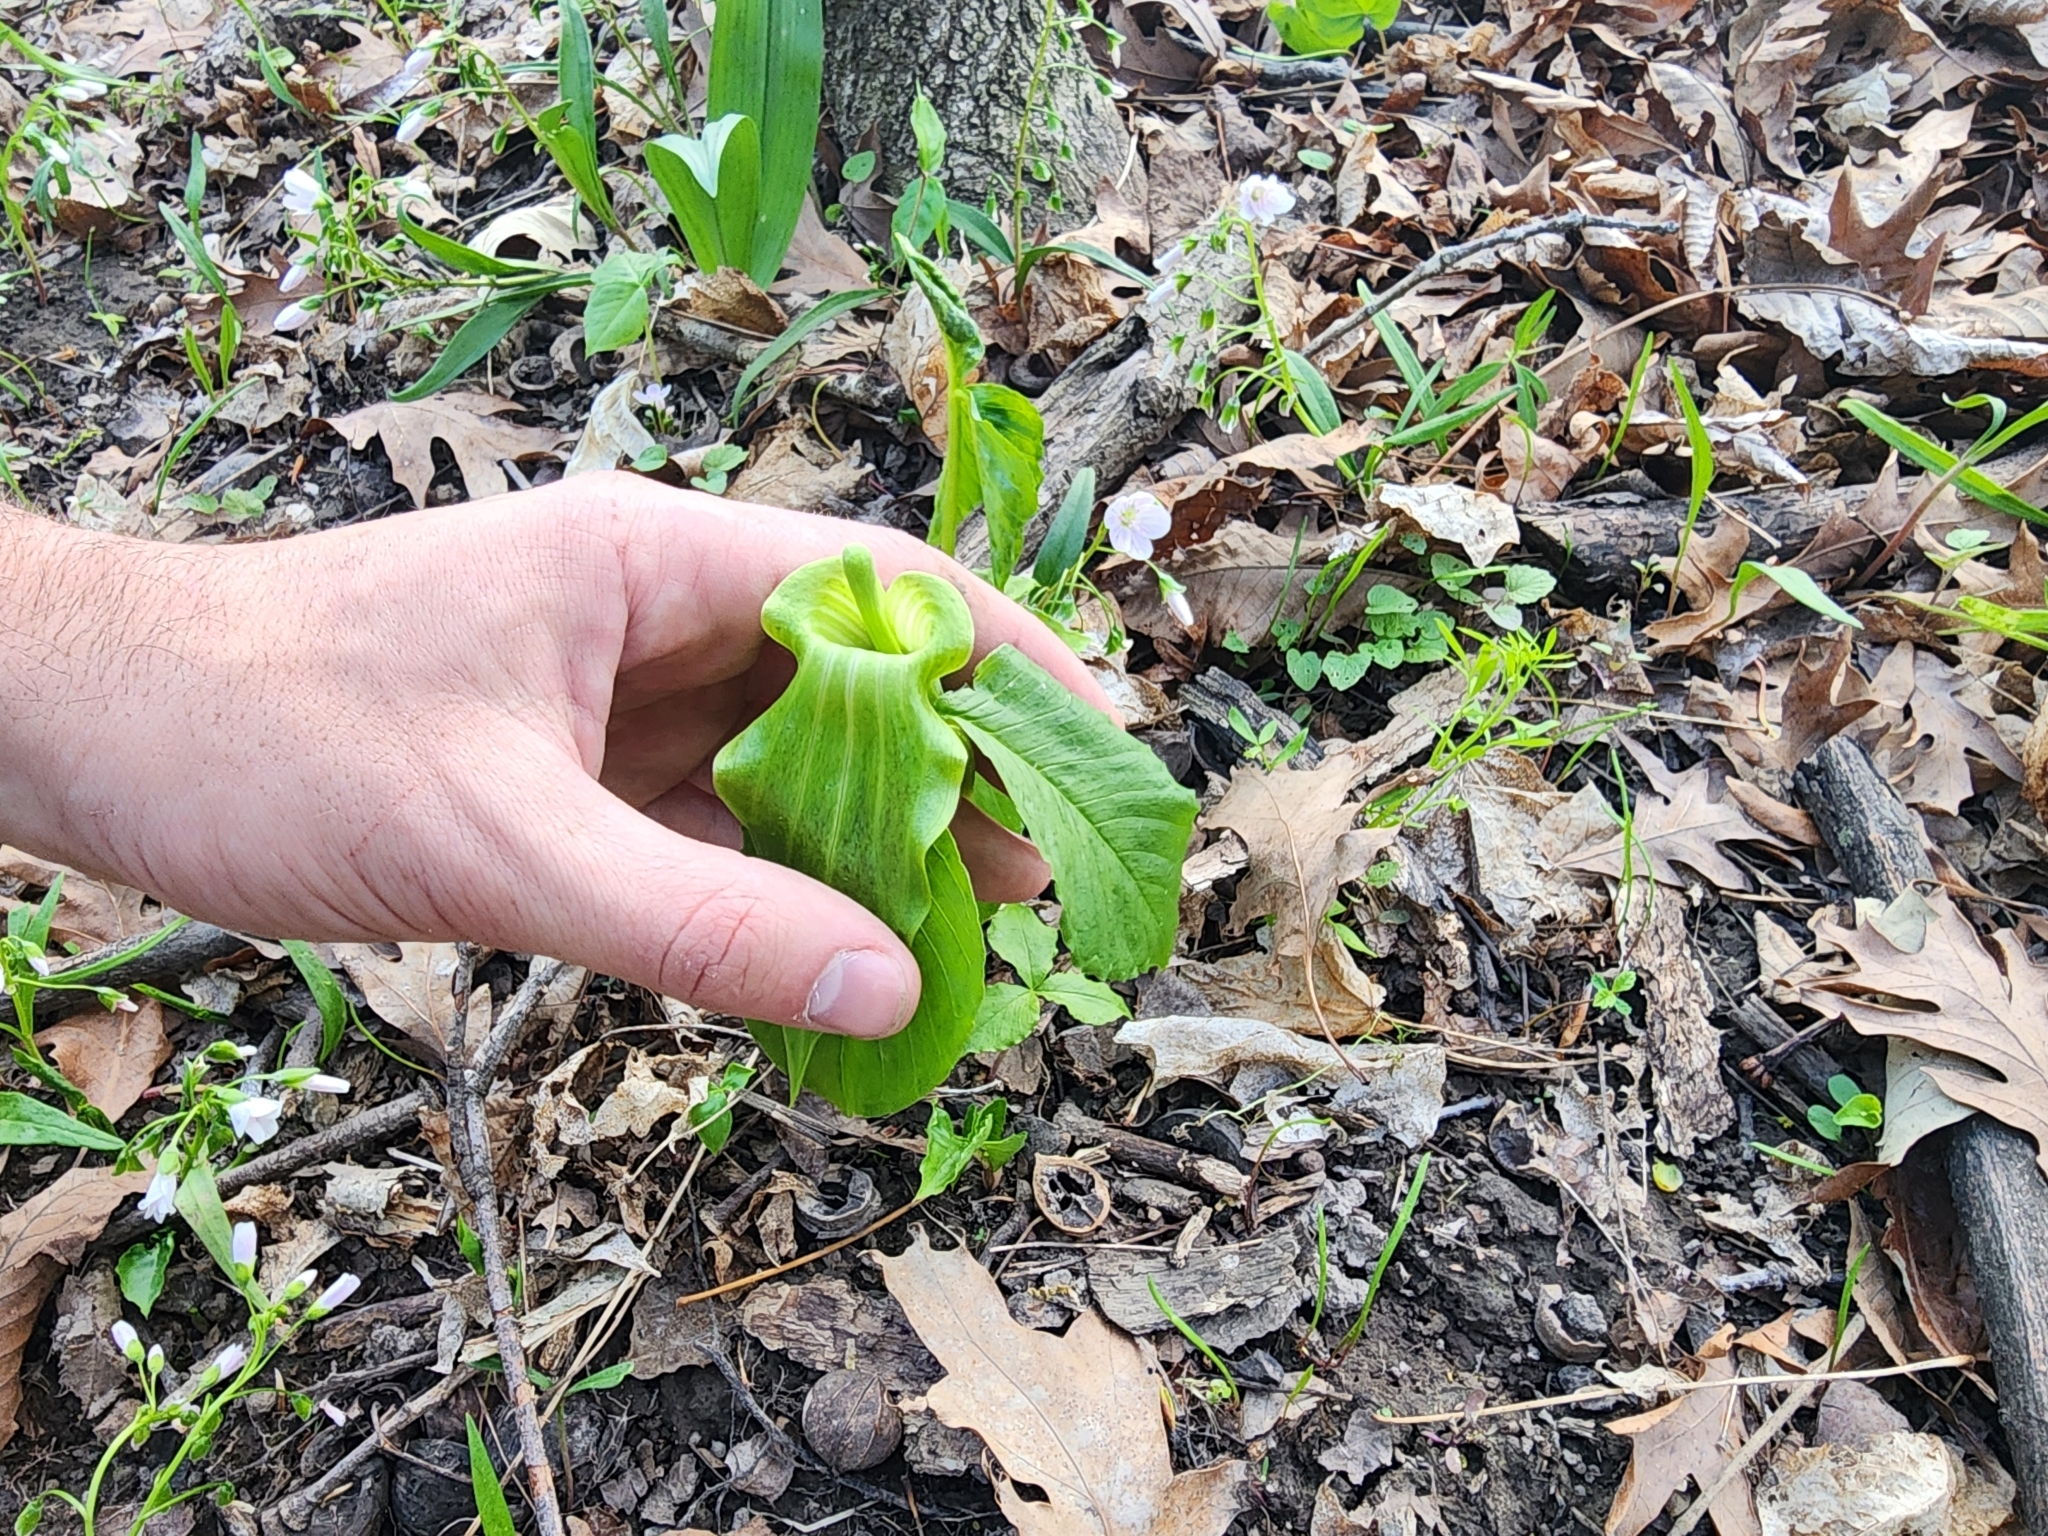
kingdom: Plantae
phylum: Tracheophyta
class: Liliopsida
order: Alismatales
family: Araceae
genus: Arisaema
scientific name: Arisaema triphyllum
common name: Jack-in-the-pulpit
